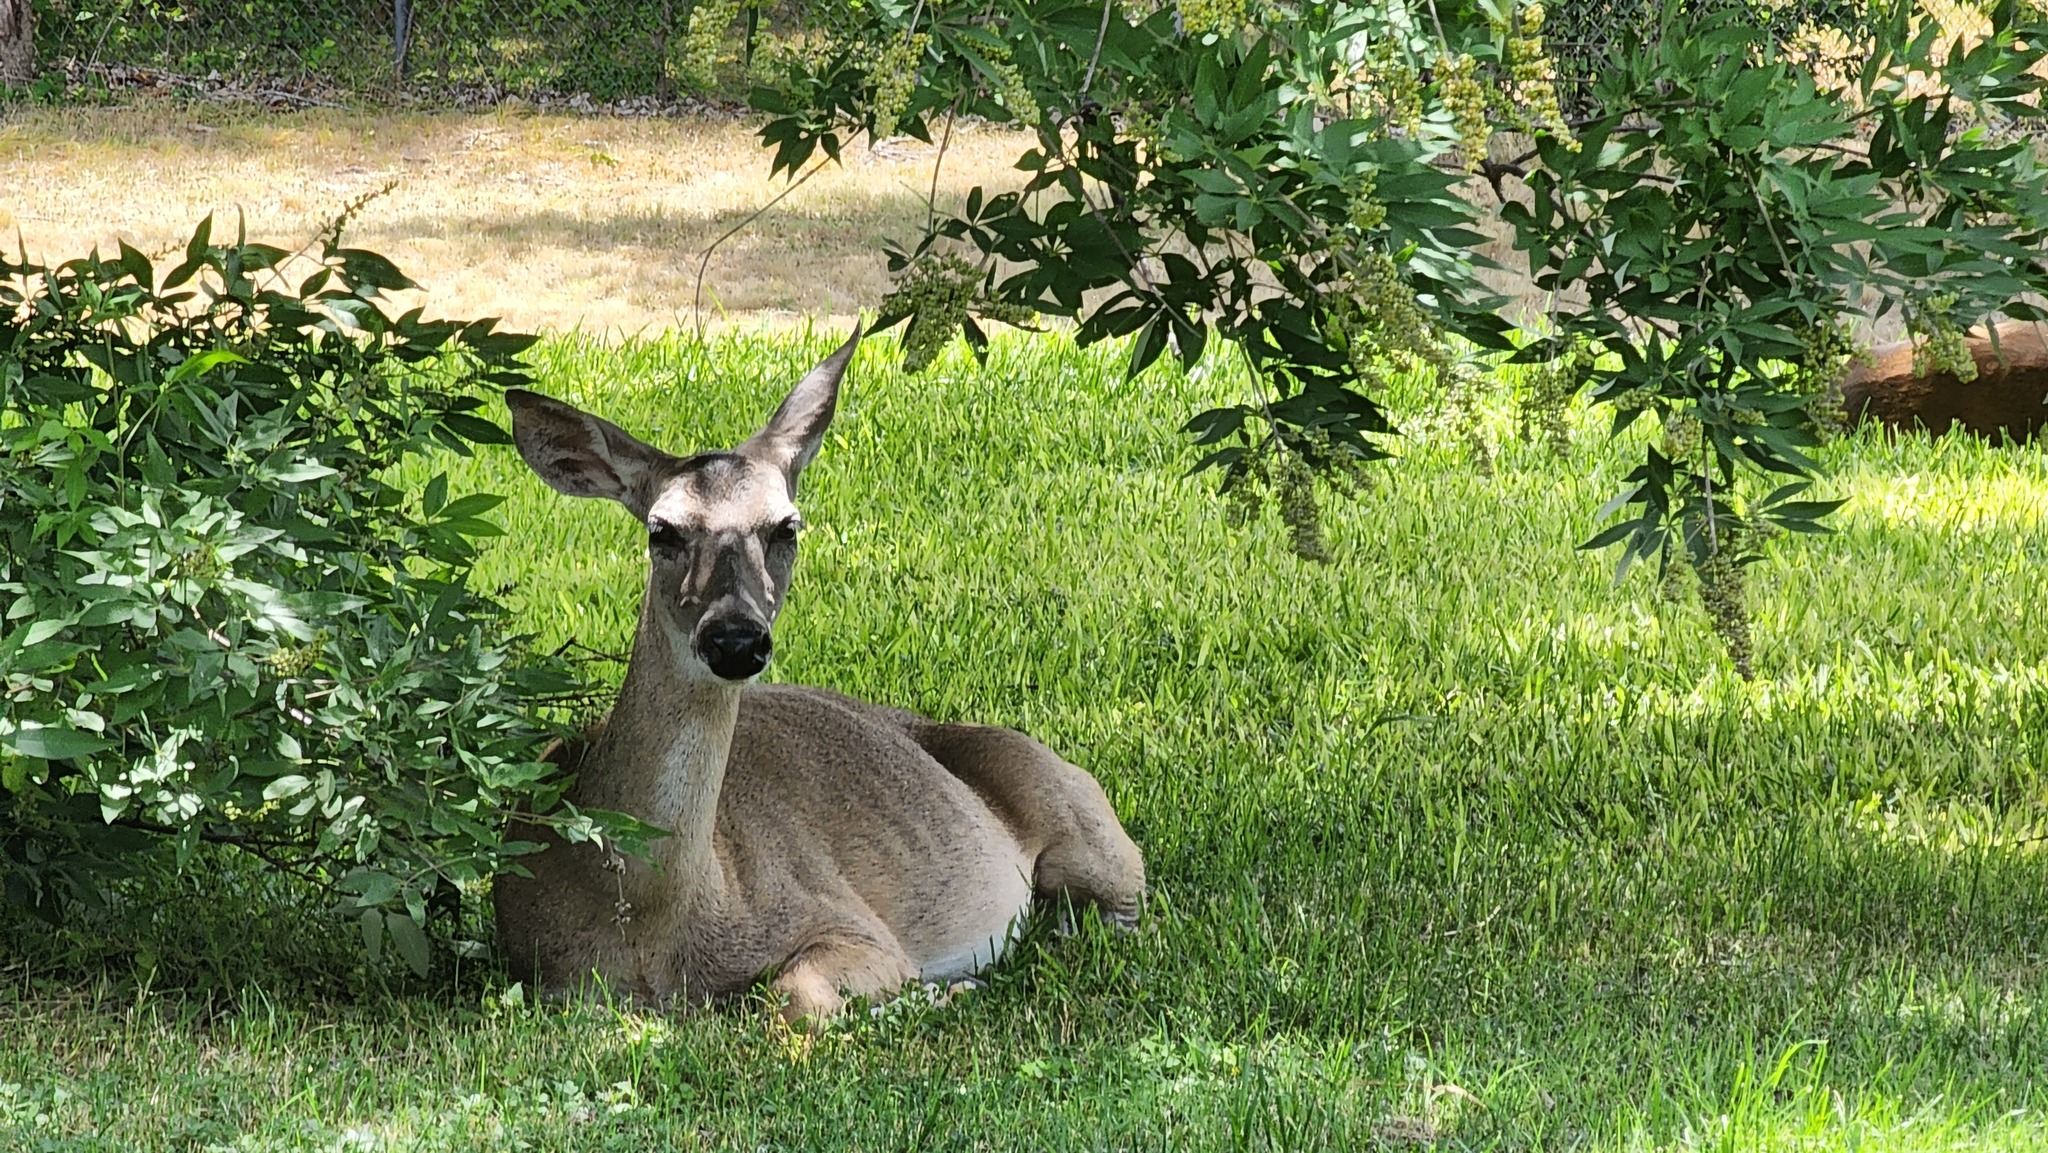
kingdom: Animalia
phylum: Chordata
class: Mammalia
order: Artiodactyla
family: Cervidae
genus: Odocoileus
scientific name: Odocoileus virginianus
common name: White-tailed deer
